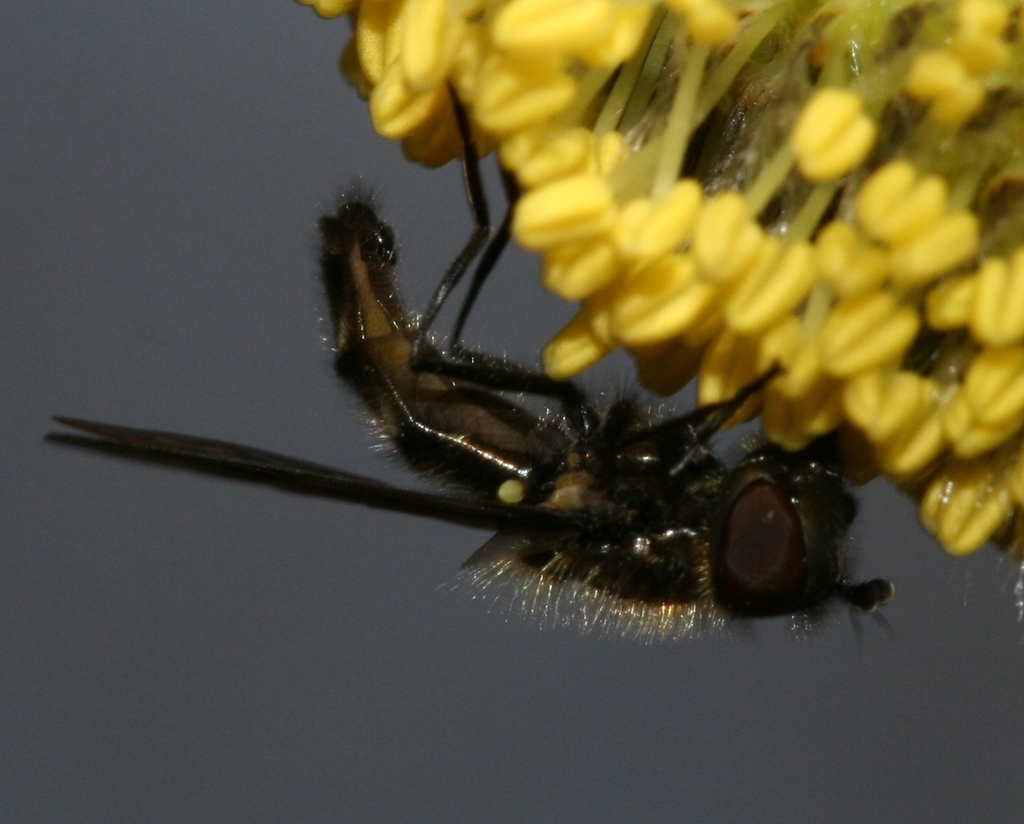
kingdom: Animalia
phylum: Arthropoda
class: Insecta
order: Diptera
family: Syrphidae
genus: Melangyna
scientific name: Melangyna quadrimaculata
